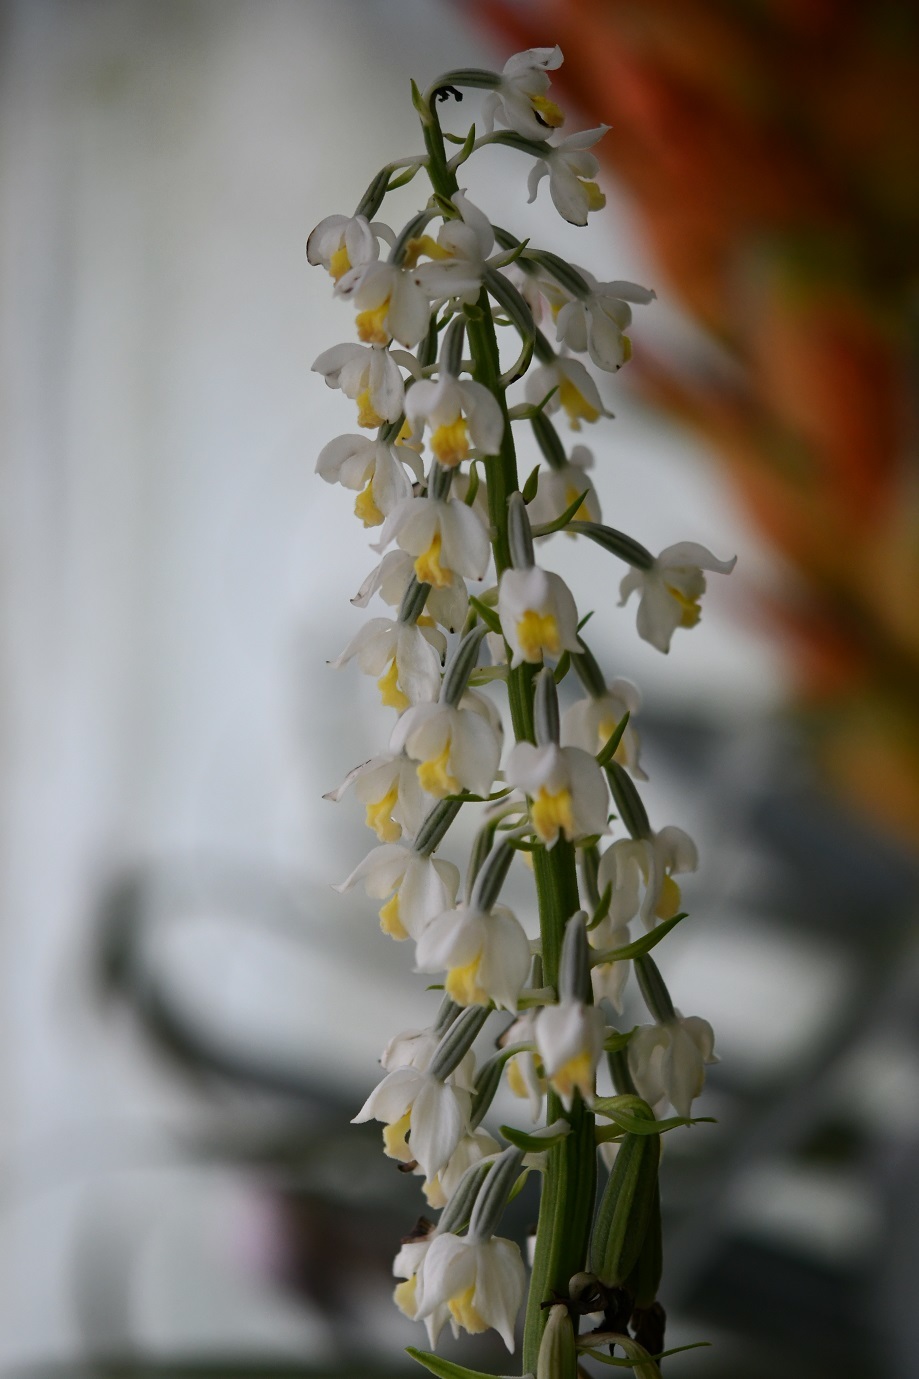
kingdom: Plantae
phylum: Tracheophyta
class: Liliopsida
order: Asparagales
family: Orchidaceae
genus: Calanthe
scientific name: Calanthe calanthoides
